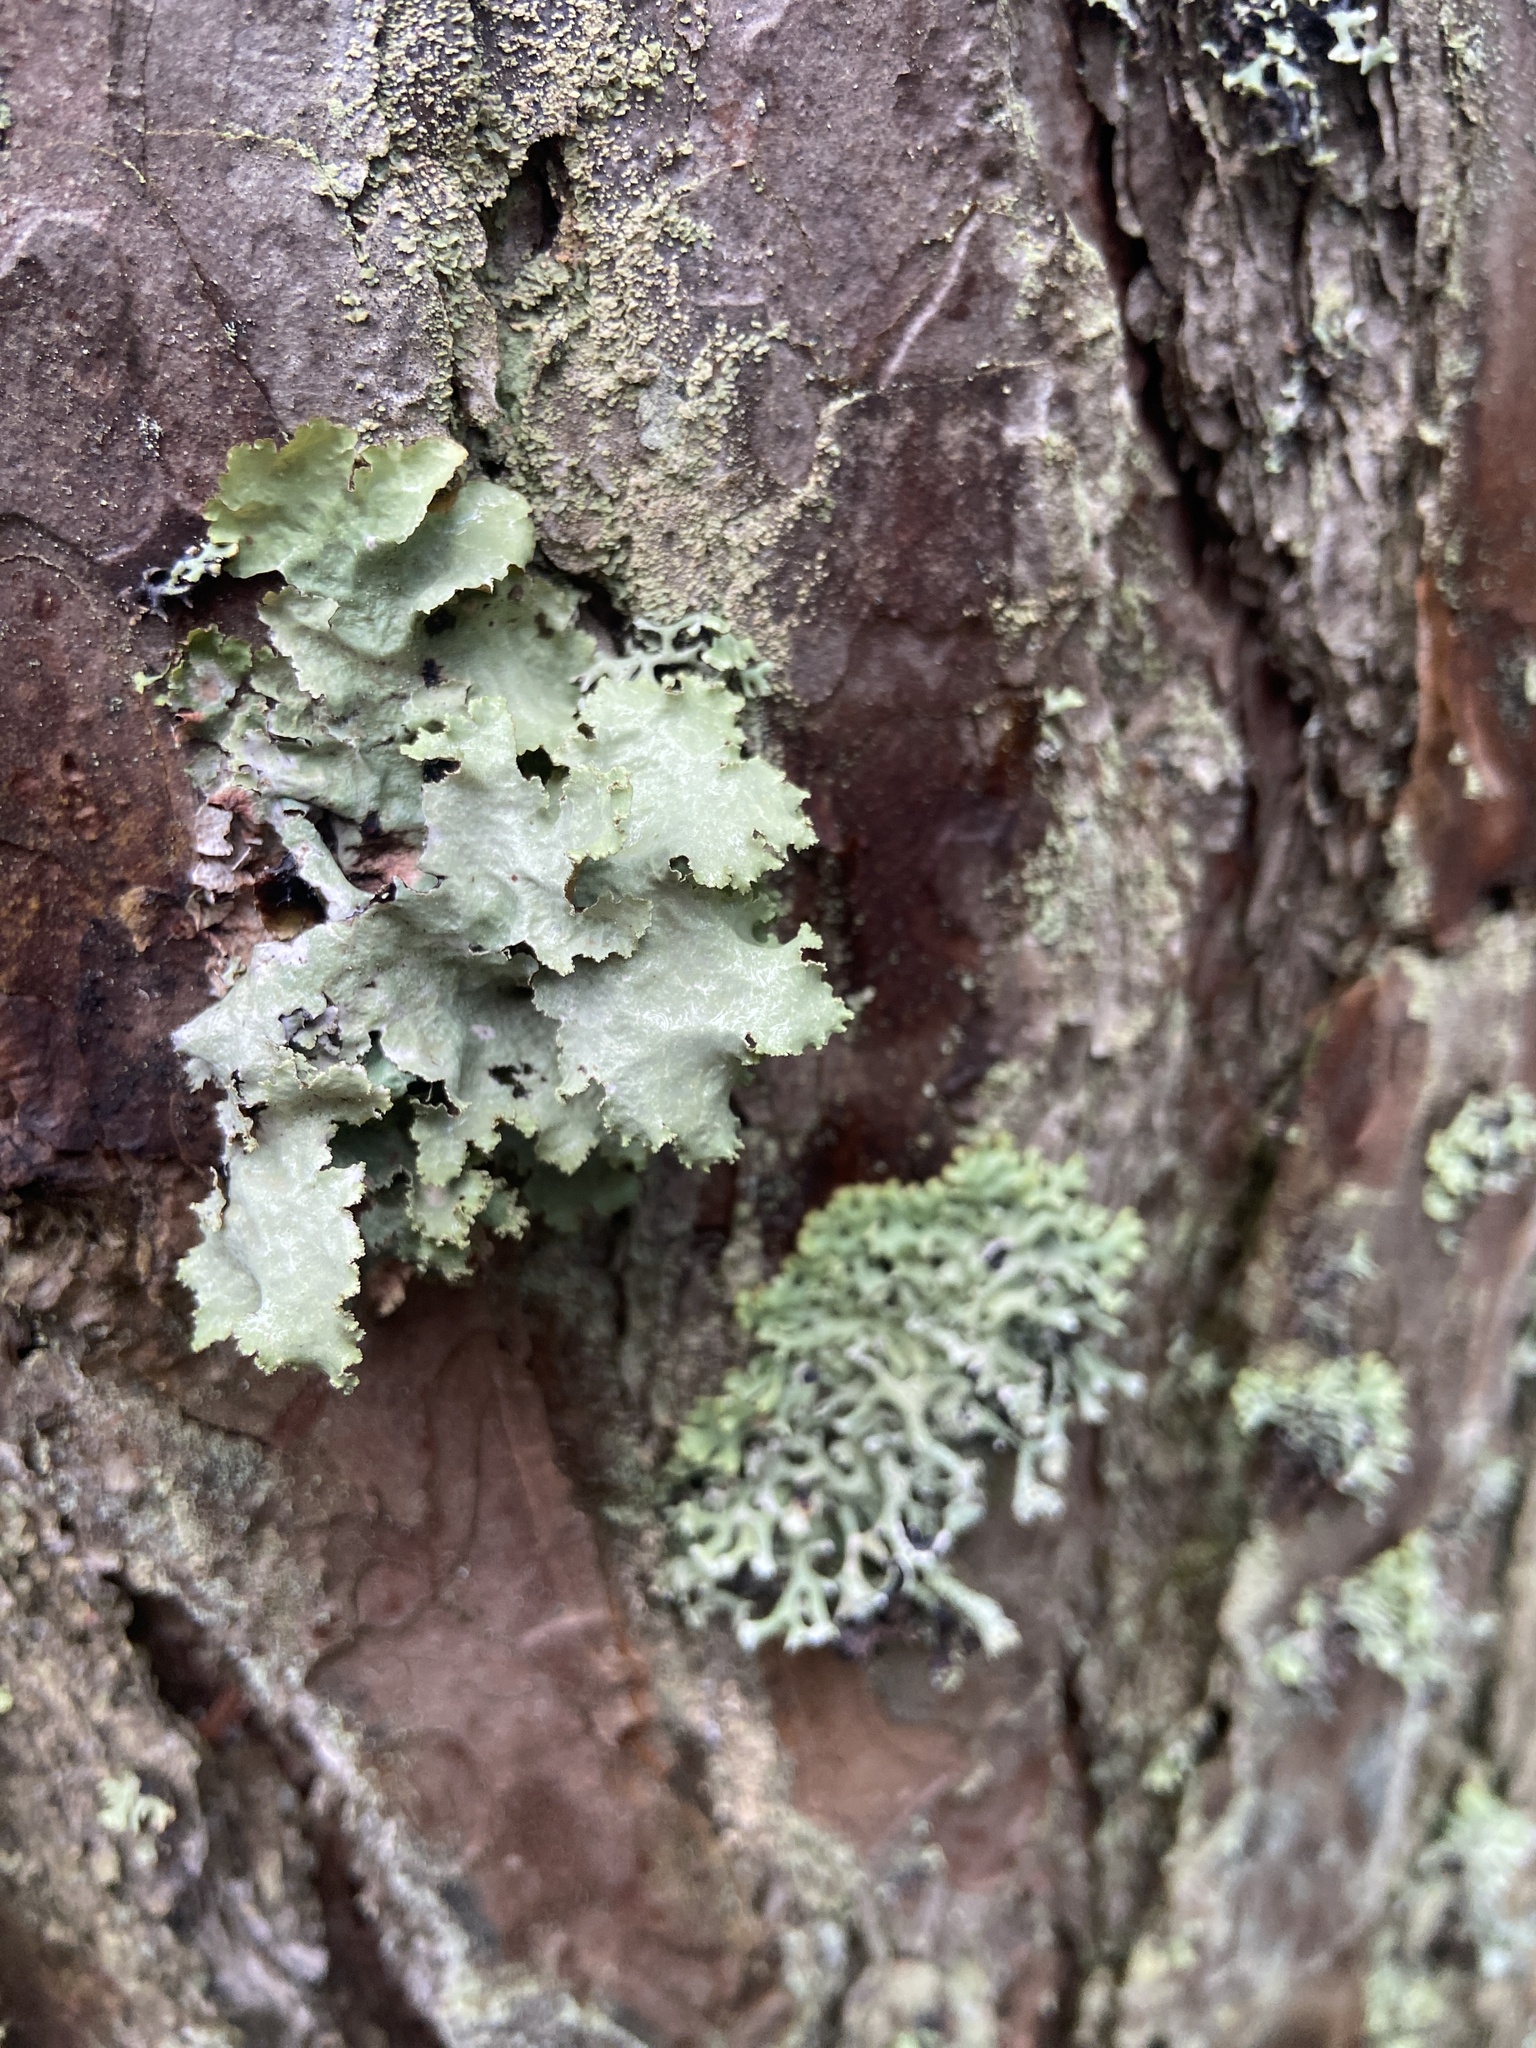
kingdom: Fungi
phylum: Ascomycota
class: Lecanoromycetes
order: Lecanorales
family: Parmeliaceae
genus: Platismatia
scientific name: Platismatia glauca
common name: Varied rag lichen
